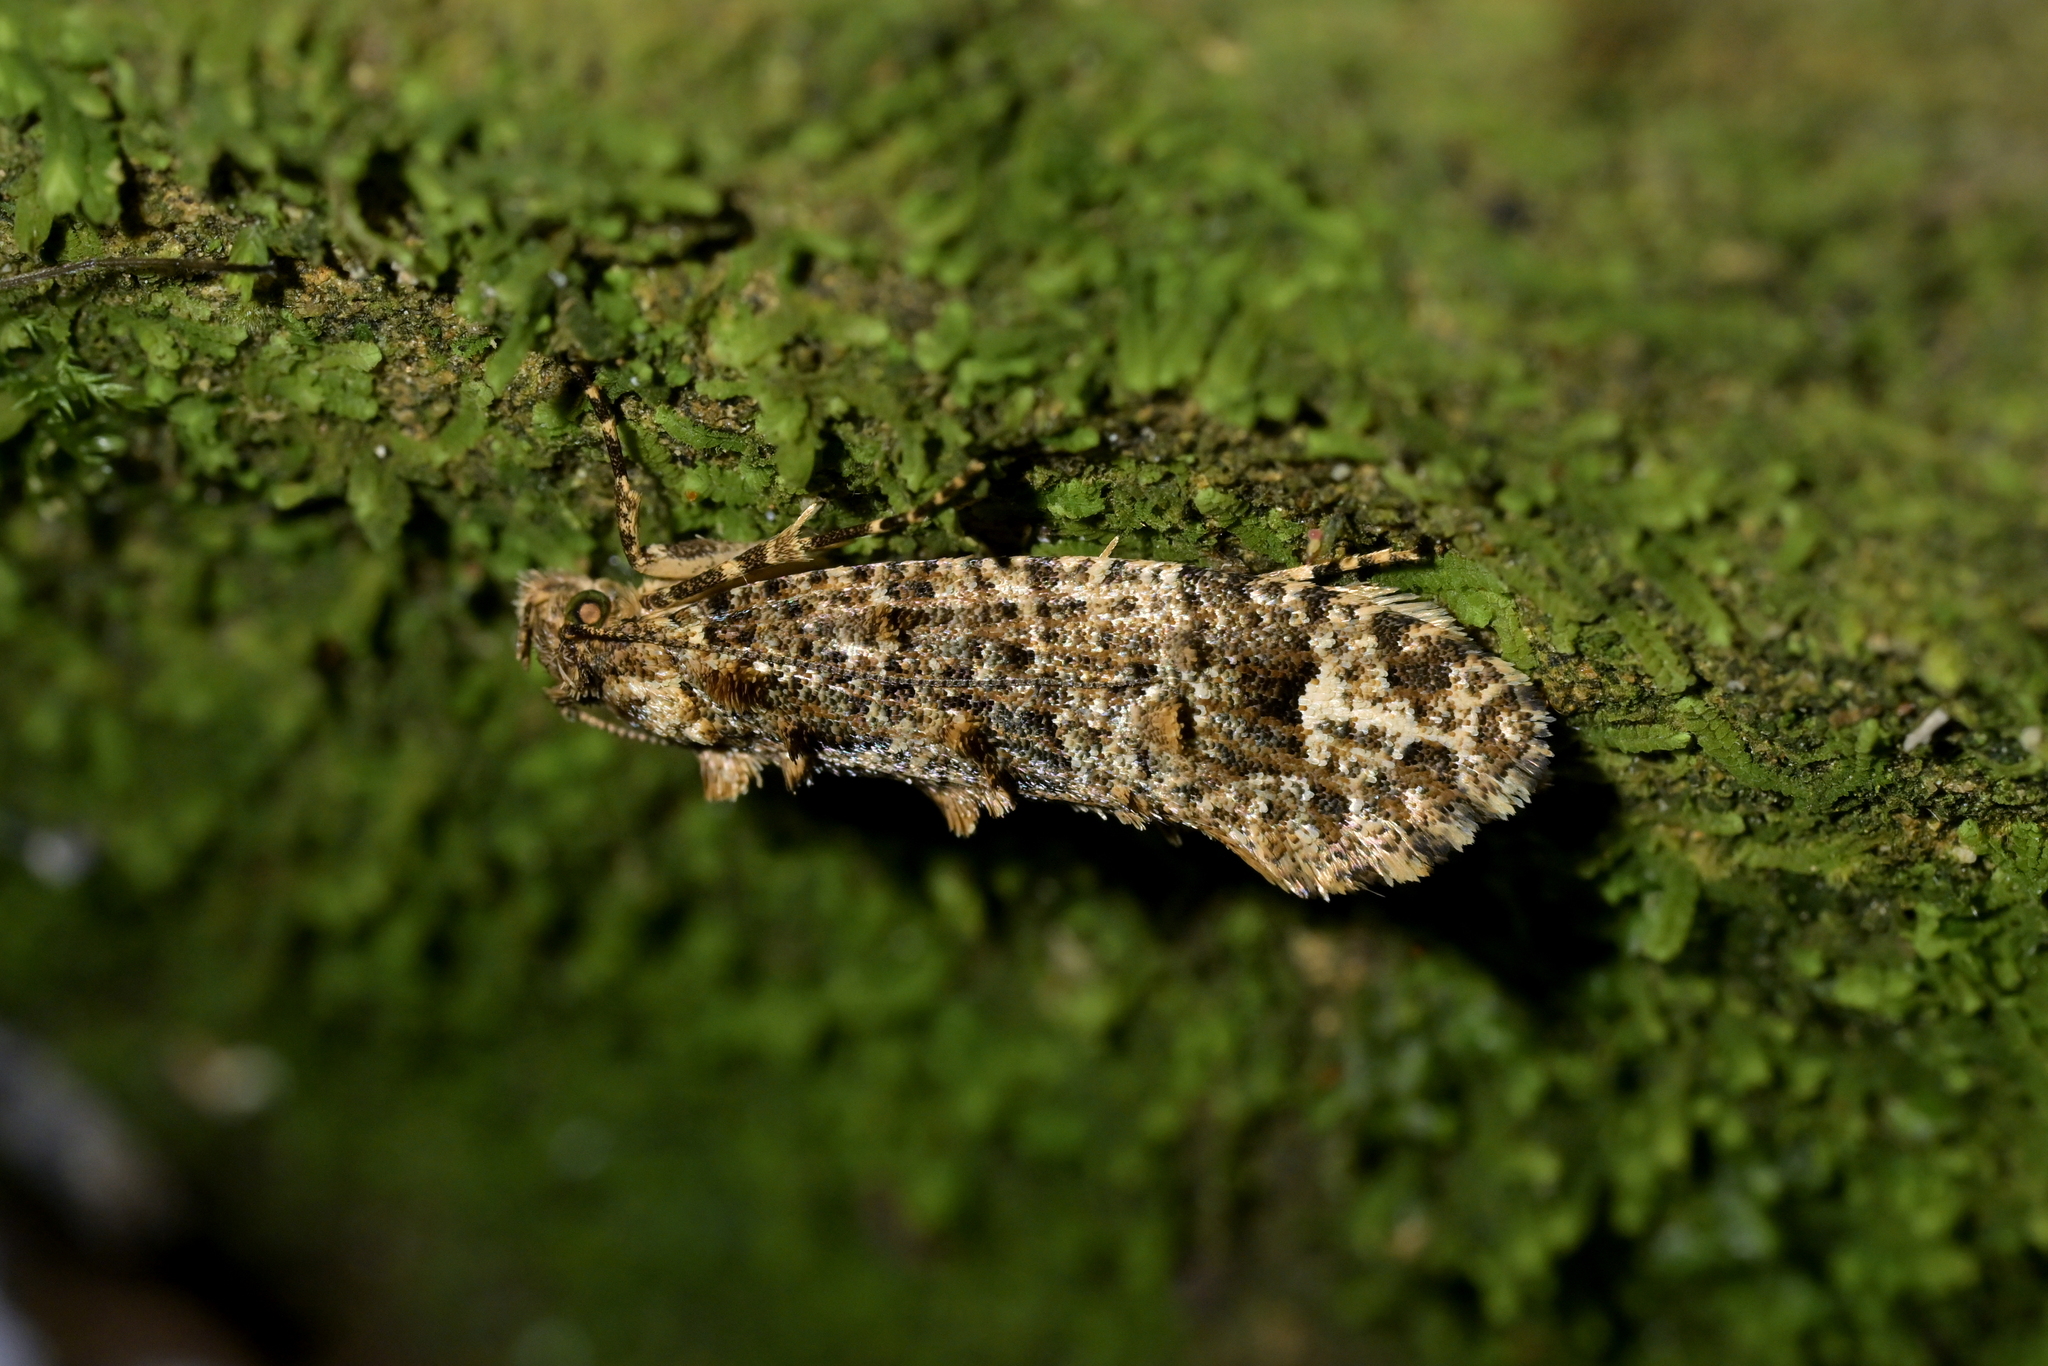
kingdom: Animalia
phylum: Arthropoda
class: Insecta
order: Lepidoptera
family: Tineidae
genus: Lysiphragma
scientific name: Lysiphragma epixyla
